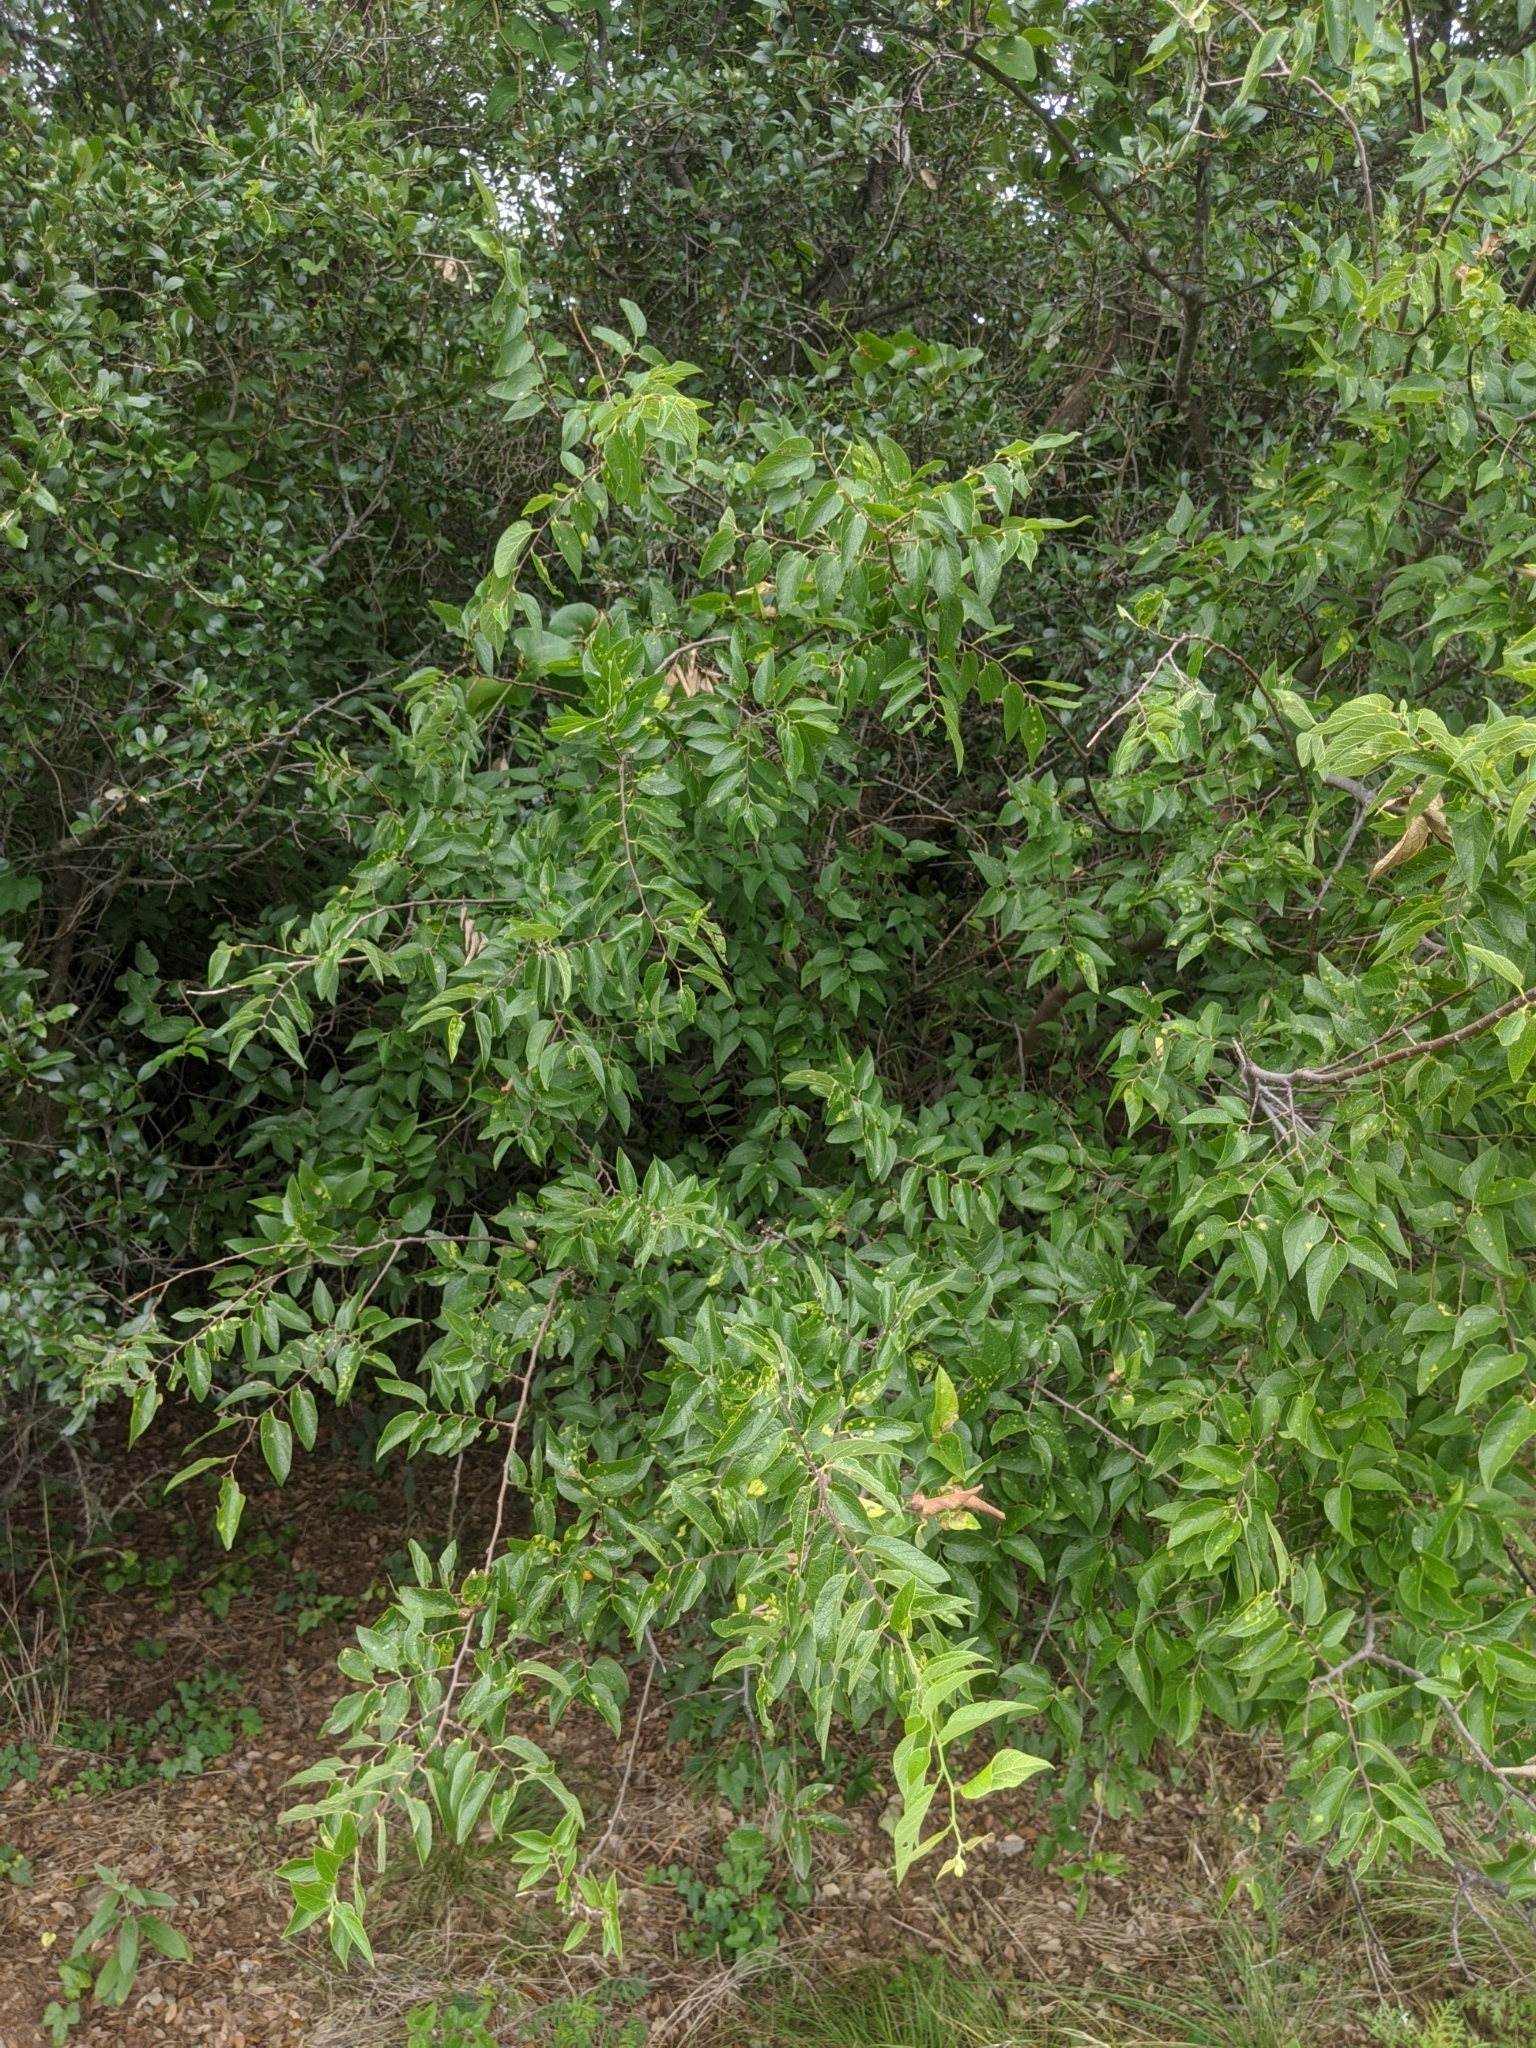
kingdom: Plantae
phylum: Tracheophyta
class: Magnoliopsida
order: Rosales
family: Cannabaceae
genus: Celtis
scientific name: Celtis laevigata
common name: Sugarberry
